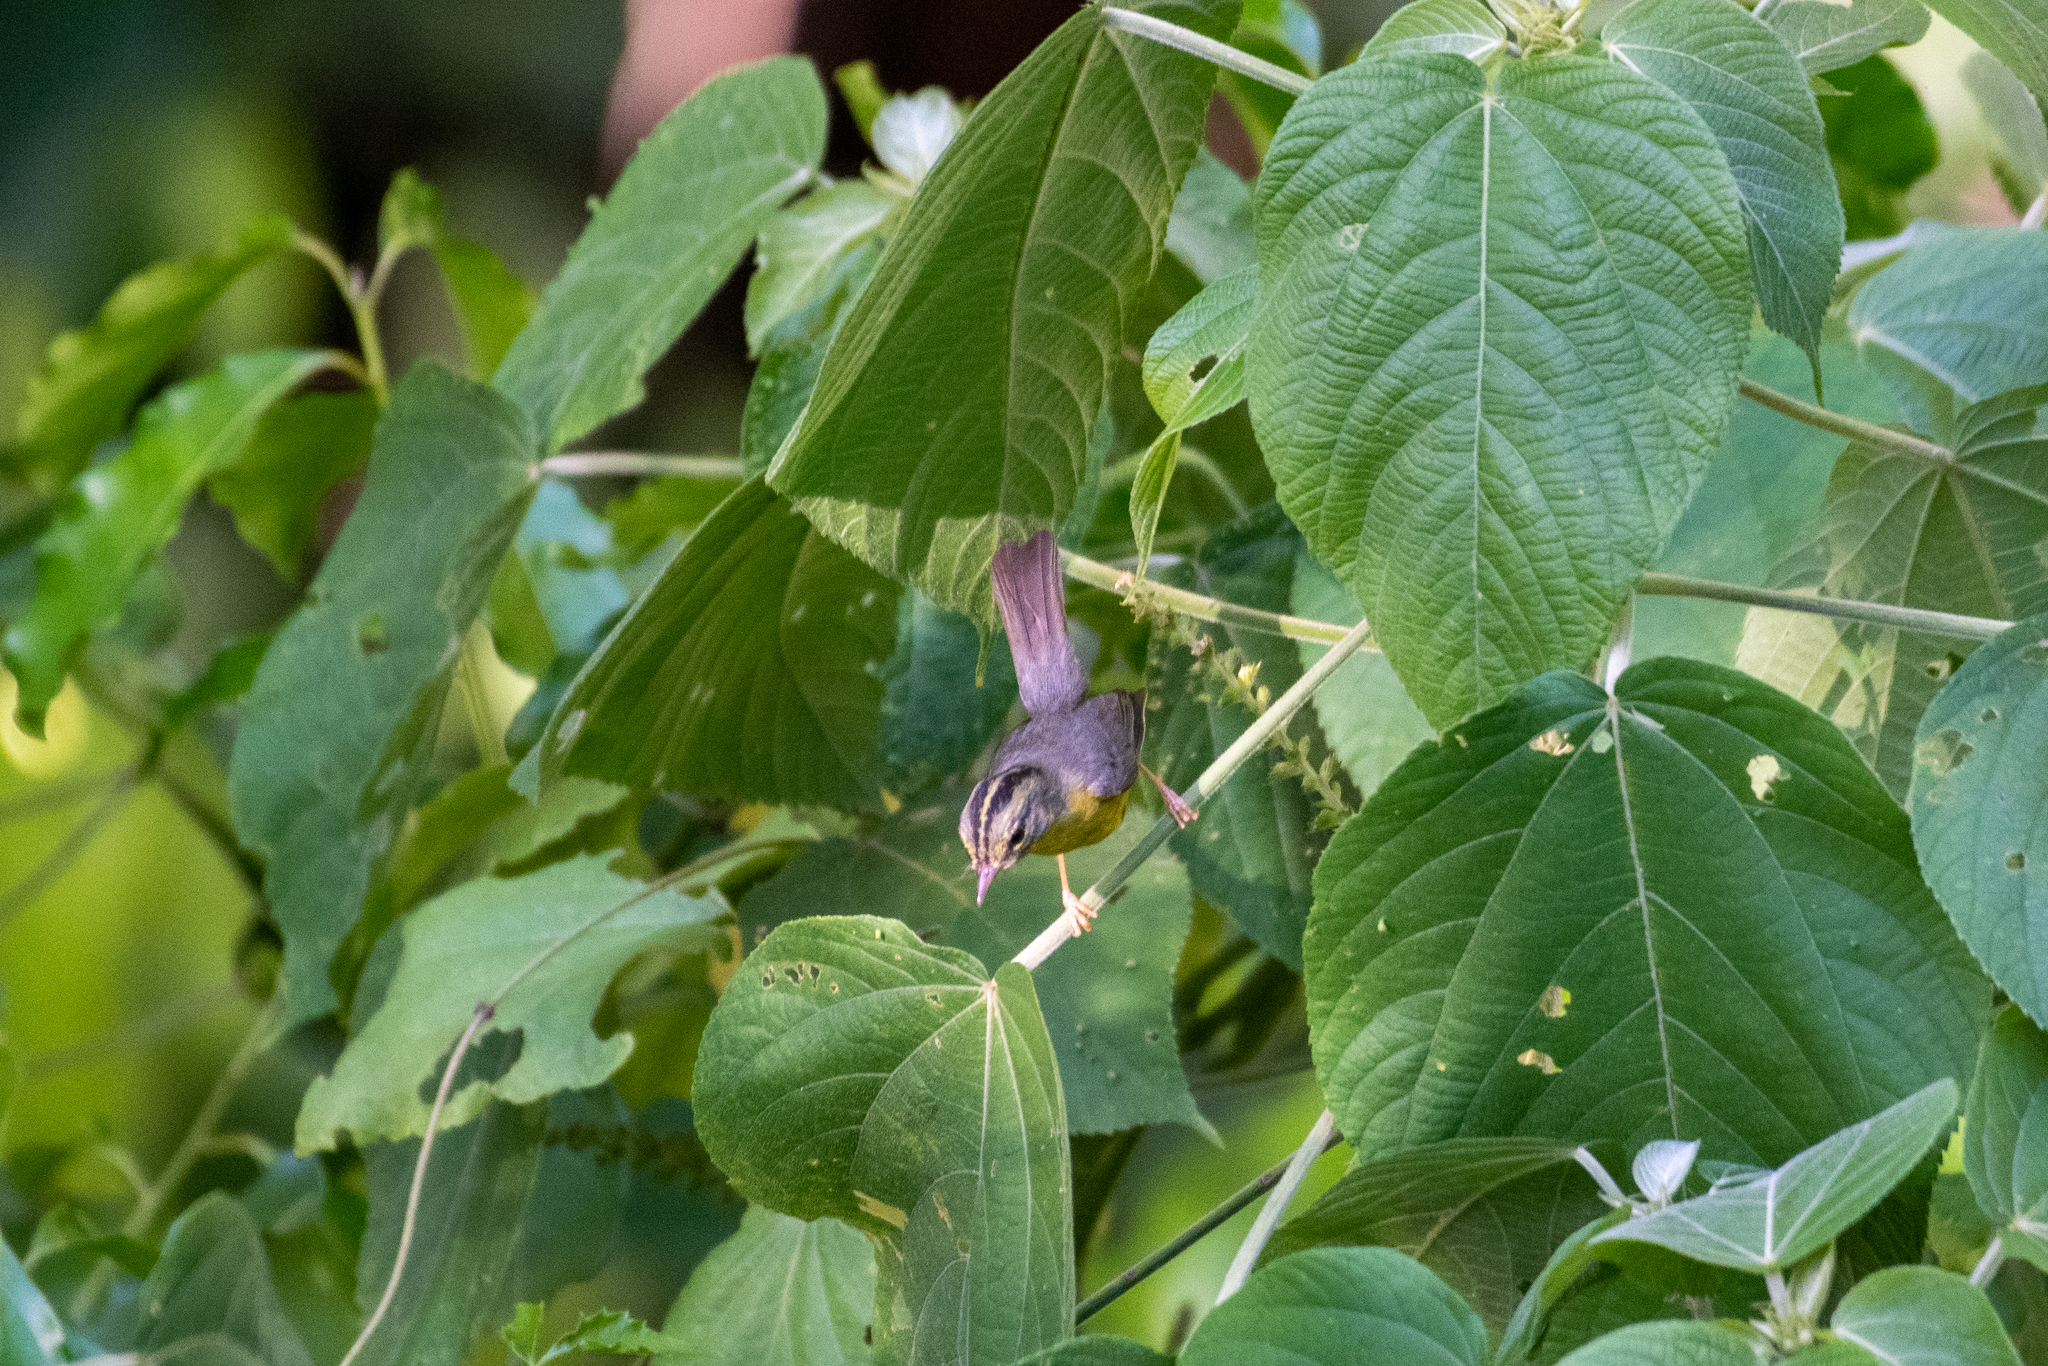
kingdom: Animalia
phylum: Chordata
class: Aves
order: Passeriformes
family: Parulidae
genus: Basileuterus
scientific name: Basileuterus culicivorus
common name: Golden-crowned warbler
